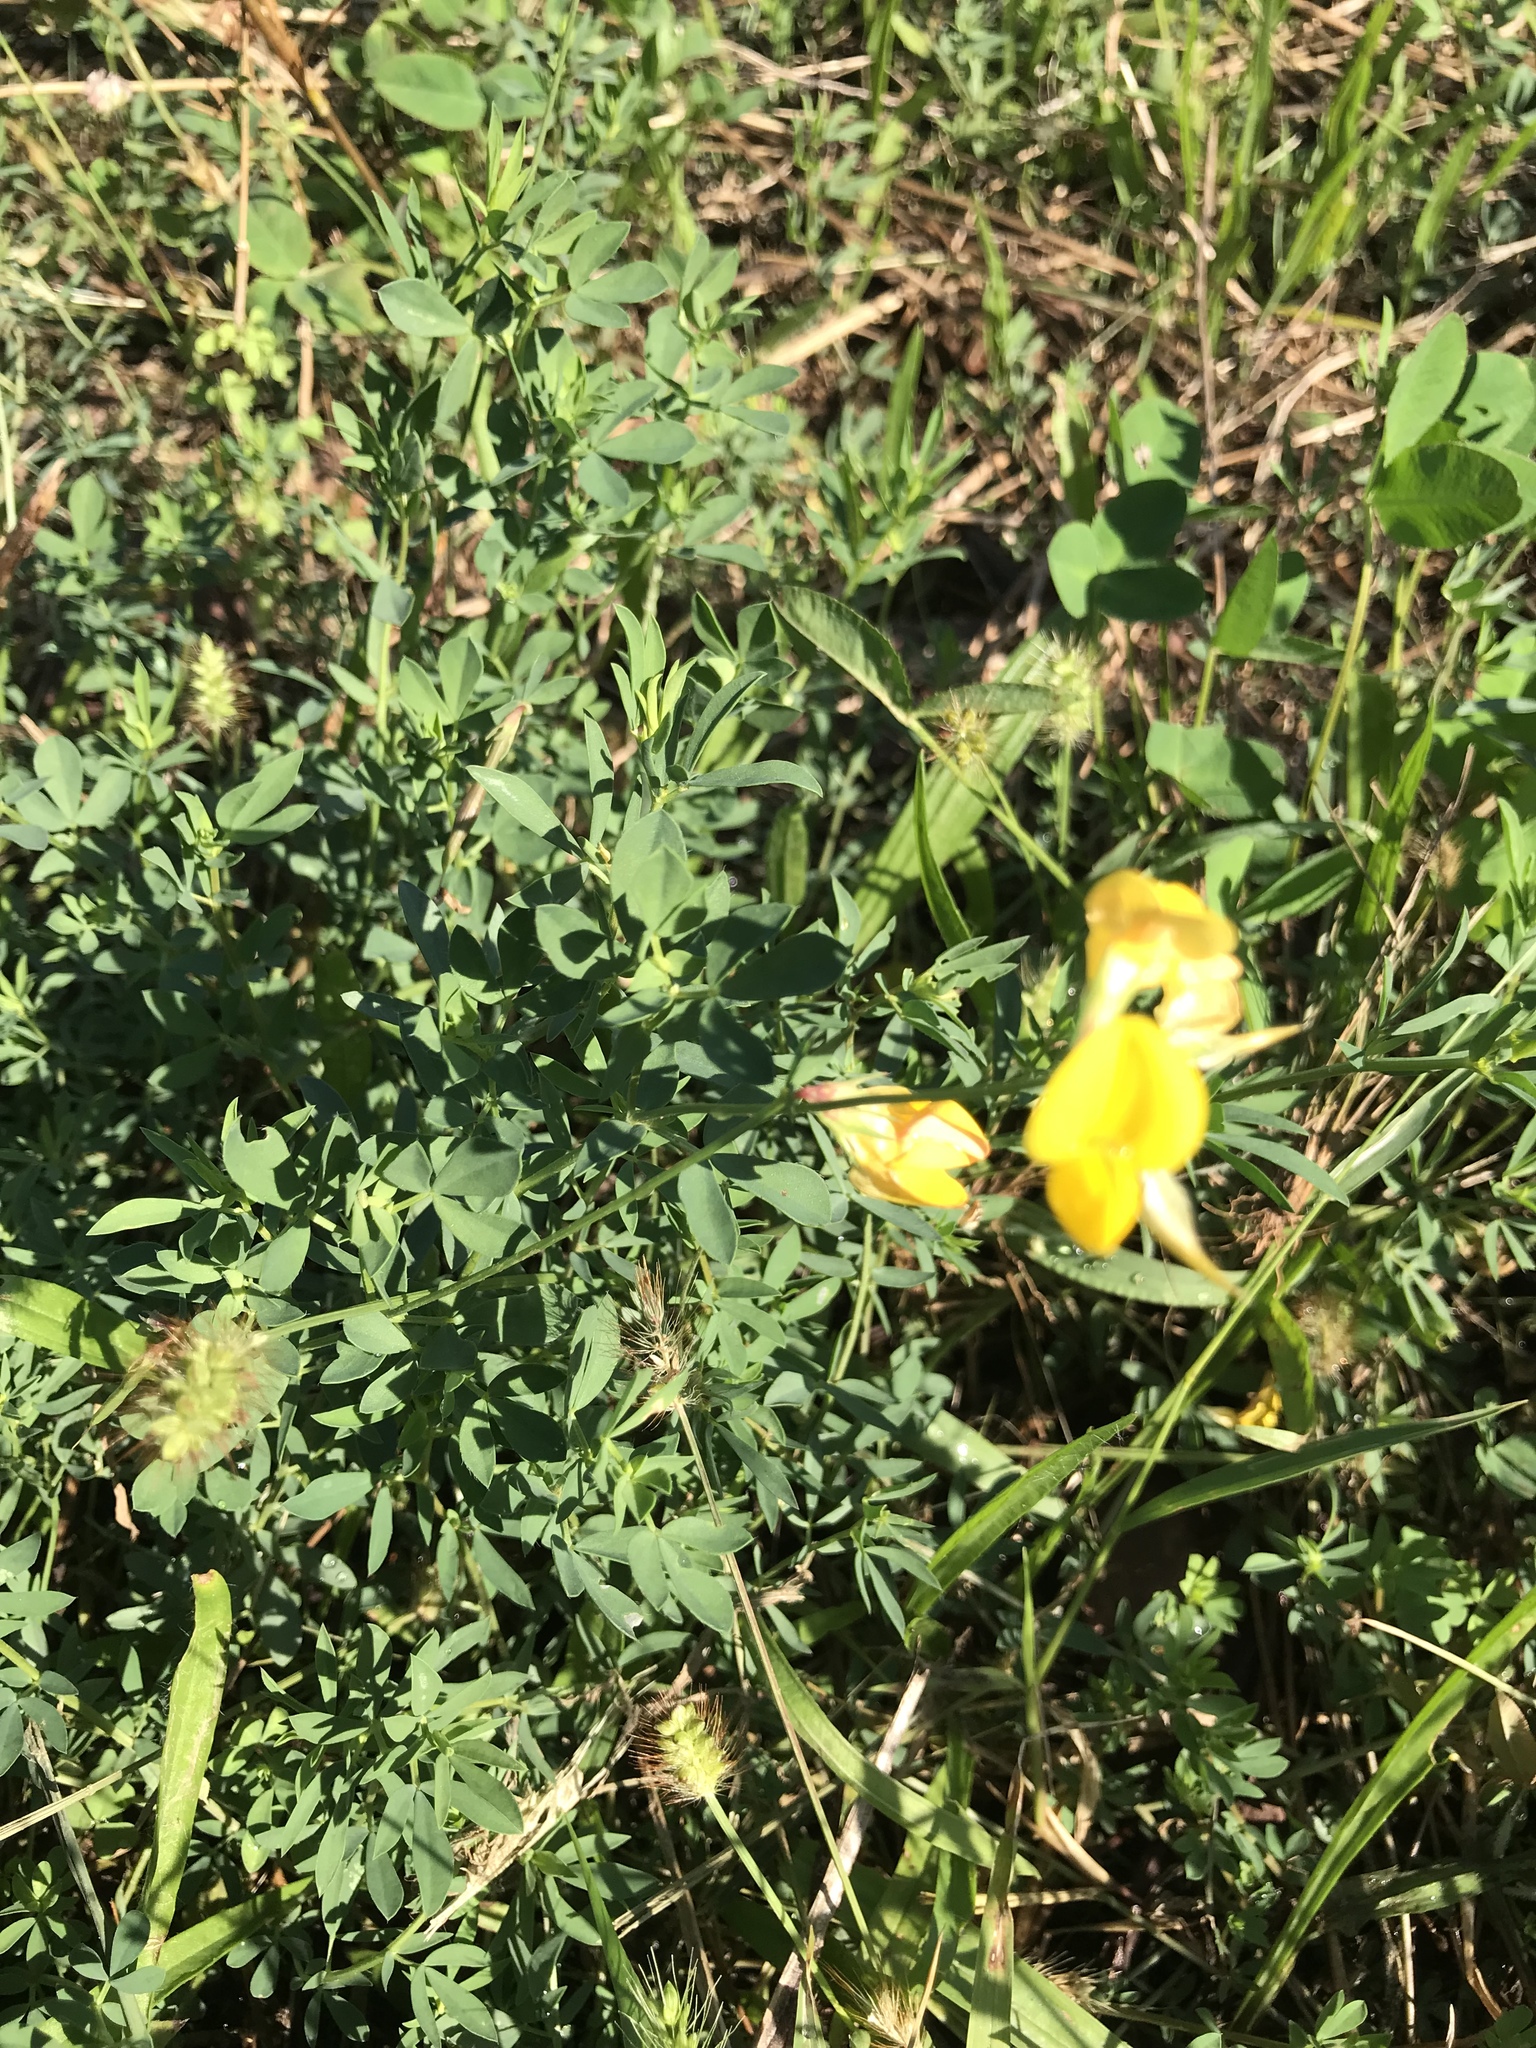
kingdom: Plantae
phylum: Tracheophyta
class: Magnoliopsida
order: Fabales
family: Fabaceae
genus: Lotus
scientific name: Lotus corniculatus
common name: Common bird's-foot-trefoil
